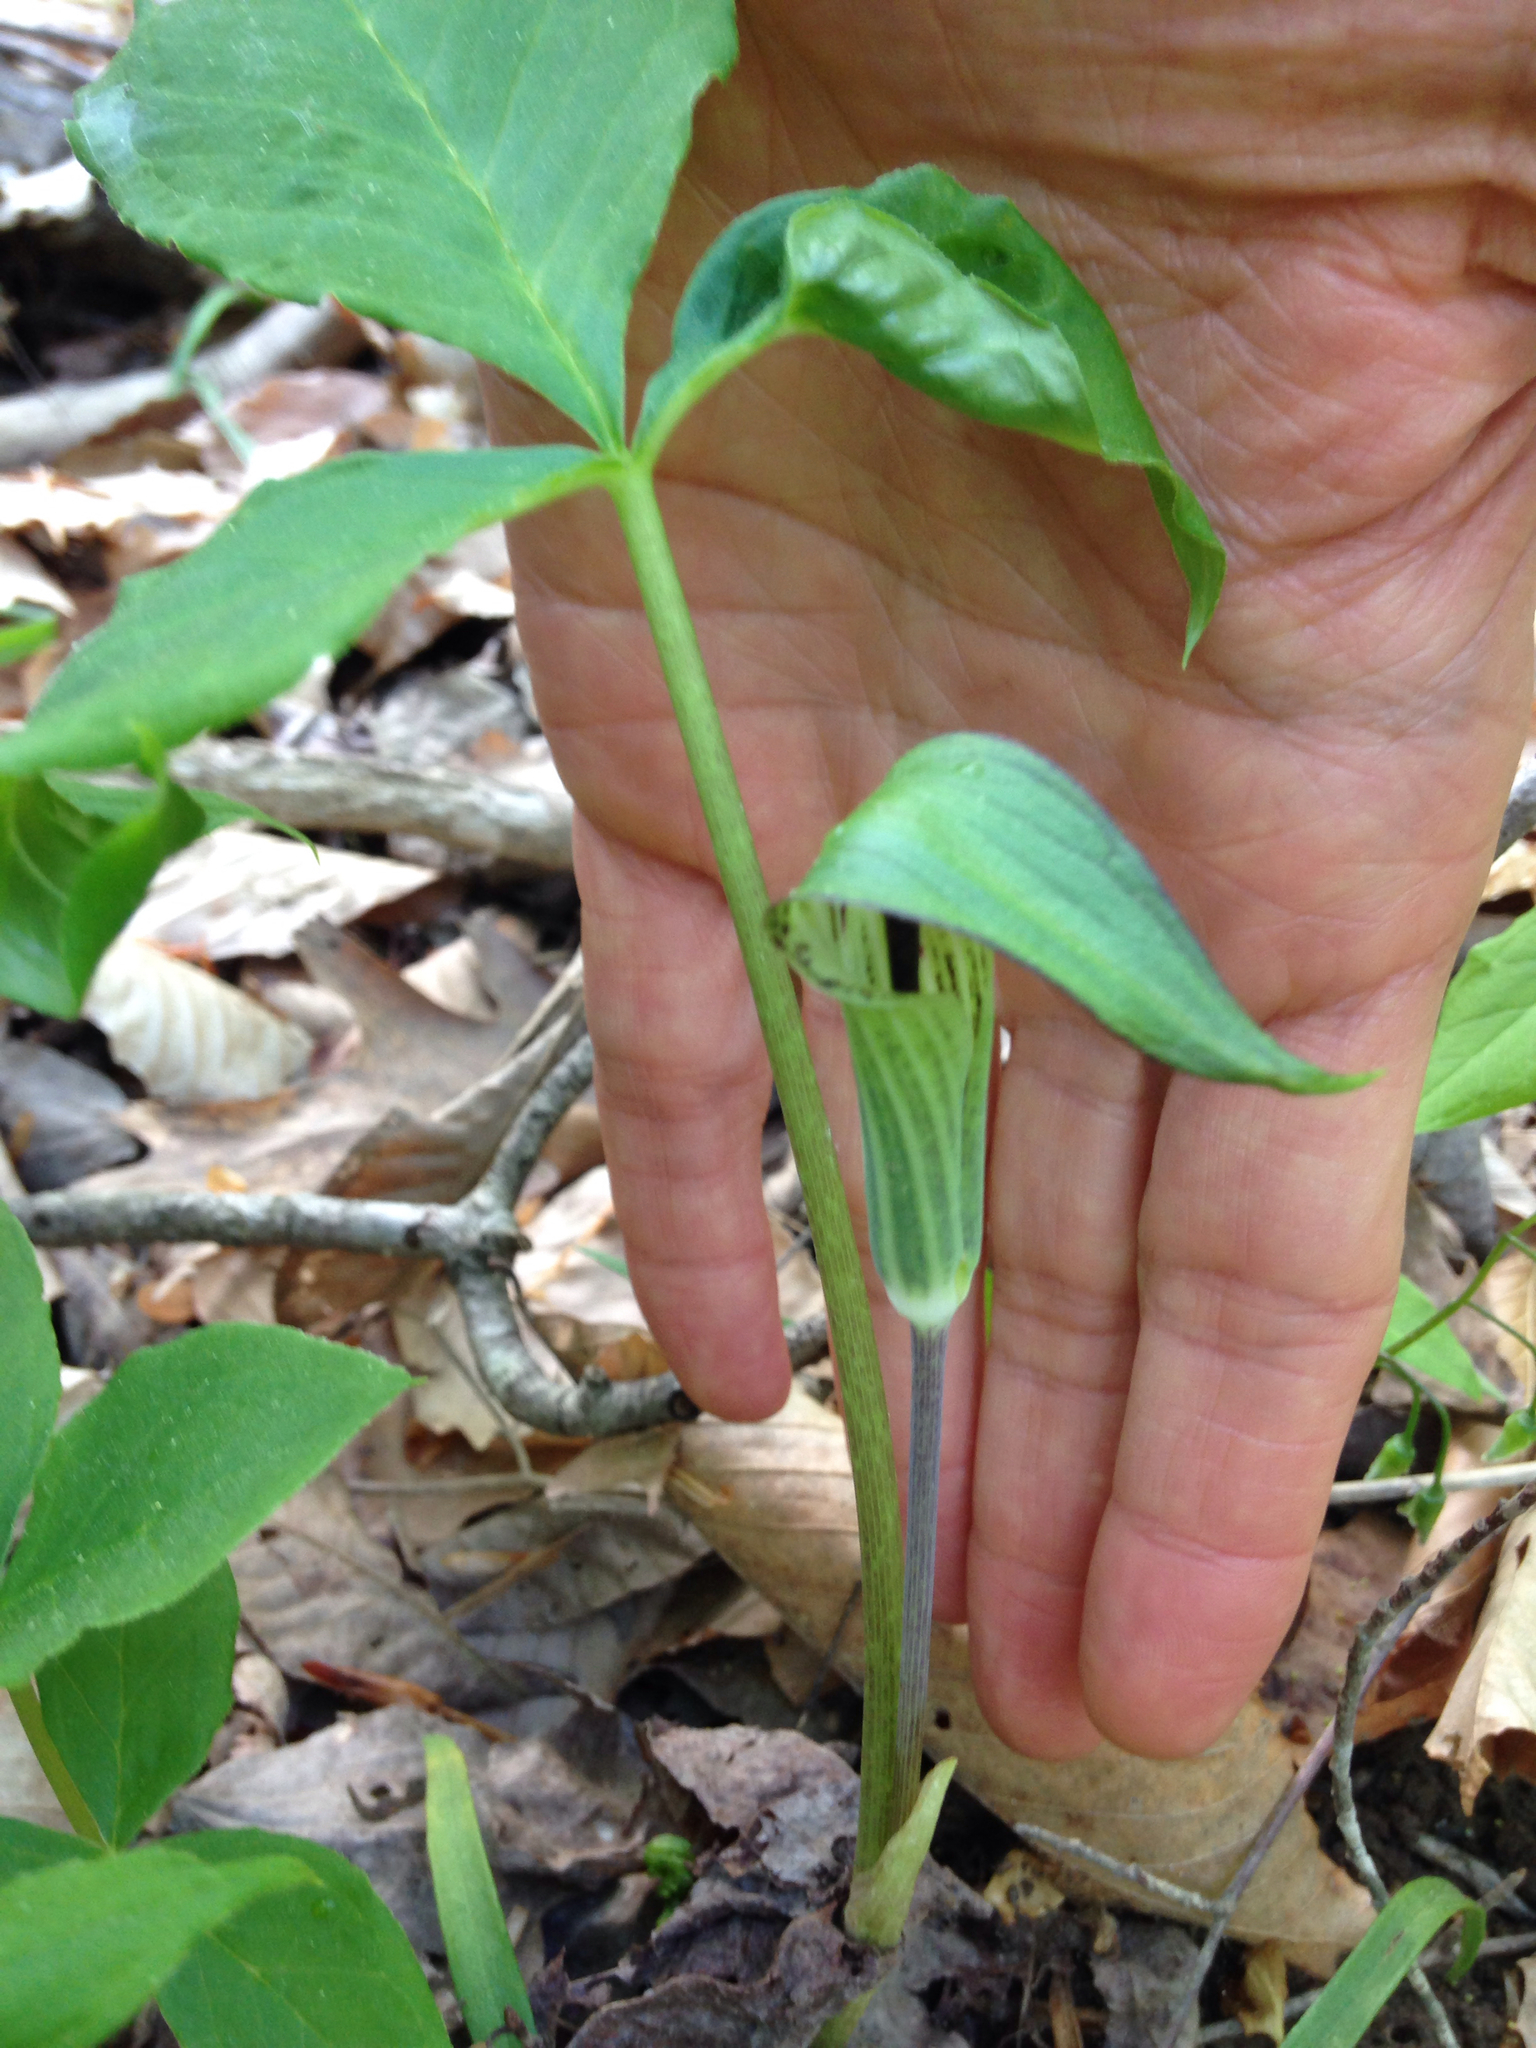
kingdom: Plantae
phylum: Tracheophyta
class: Liliopsida
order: Alismatales
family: Araceae
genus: Arisaema
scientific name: Arisaema triphyllum
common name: Jack-in-the-pulpit
